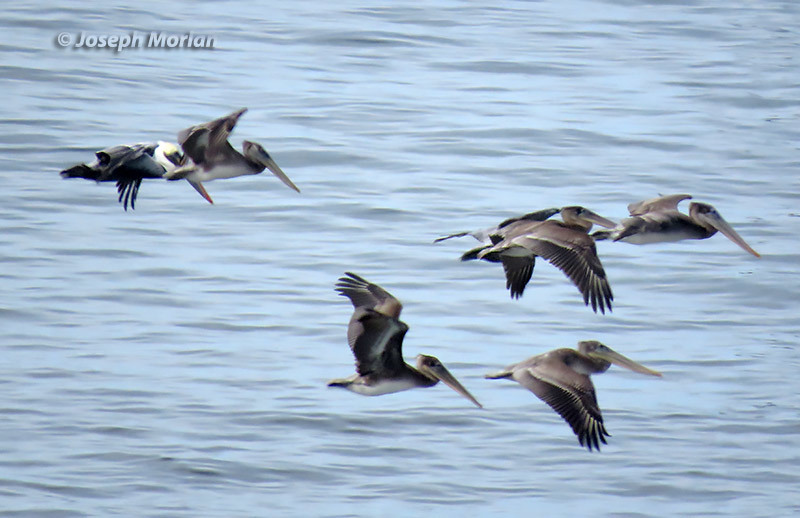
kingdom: Animalia
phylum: Chordata
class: Aves
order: Pelecaniformes
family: Pelecanidae
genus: Pelecanus
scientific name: Pelecanus occidentalis
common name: Brown pelican
